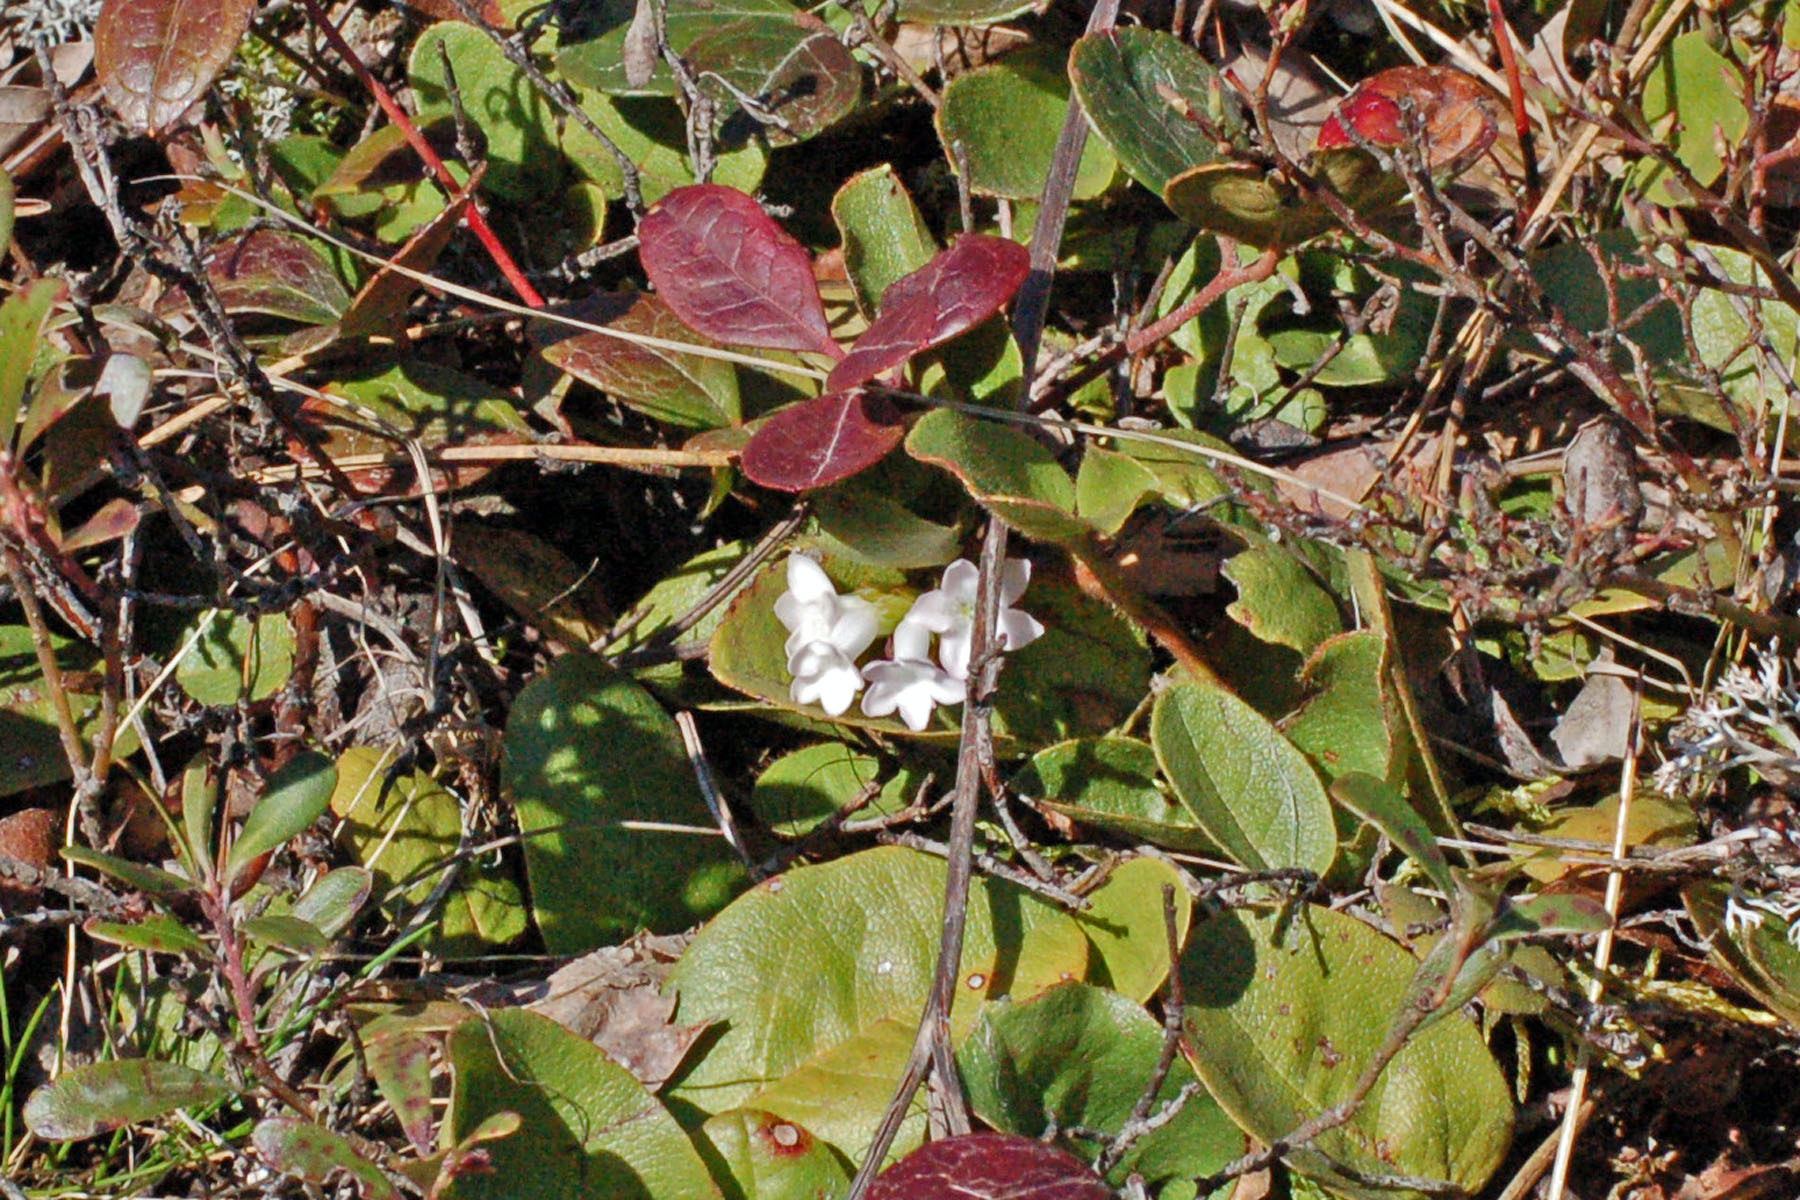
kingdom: Plantae
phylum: Tracheophyta
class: Magnoliopsida
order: Ericales
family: Ericaceae
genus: Epigaea
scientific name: Epigaea repens
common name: Gravelroot
